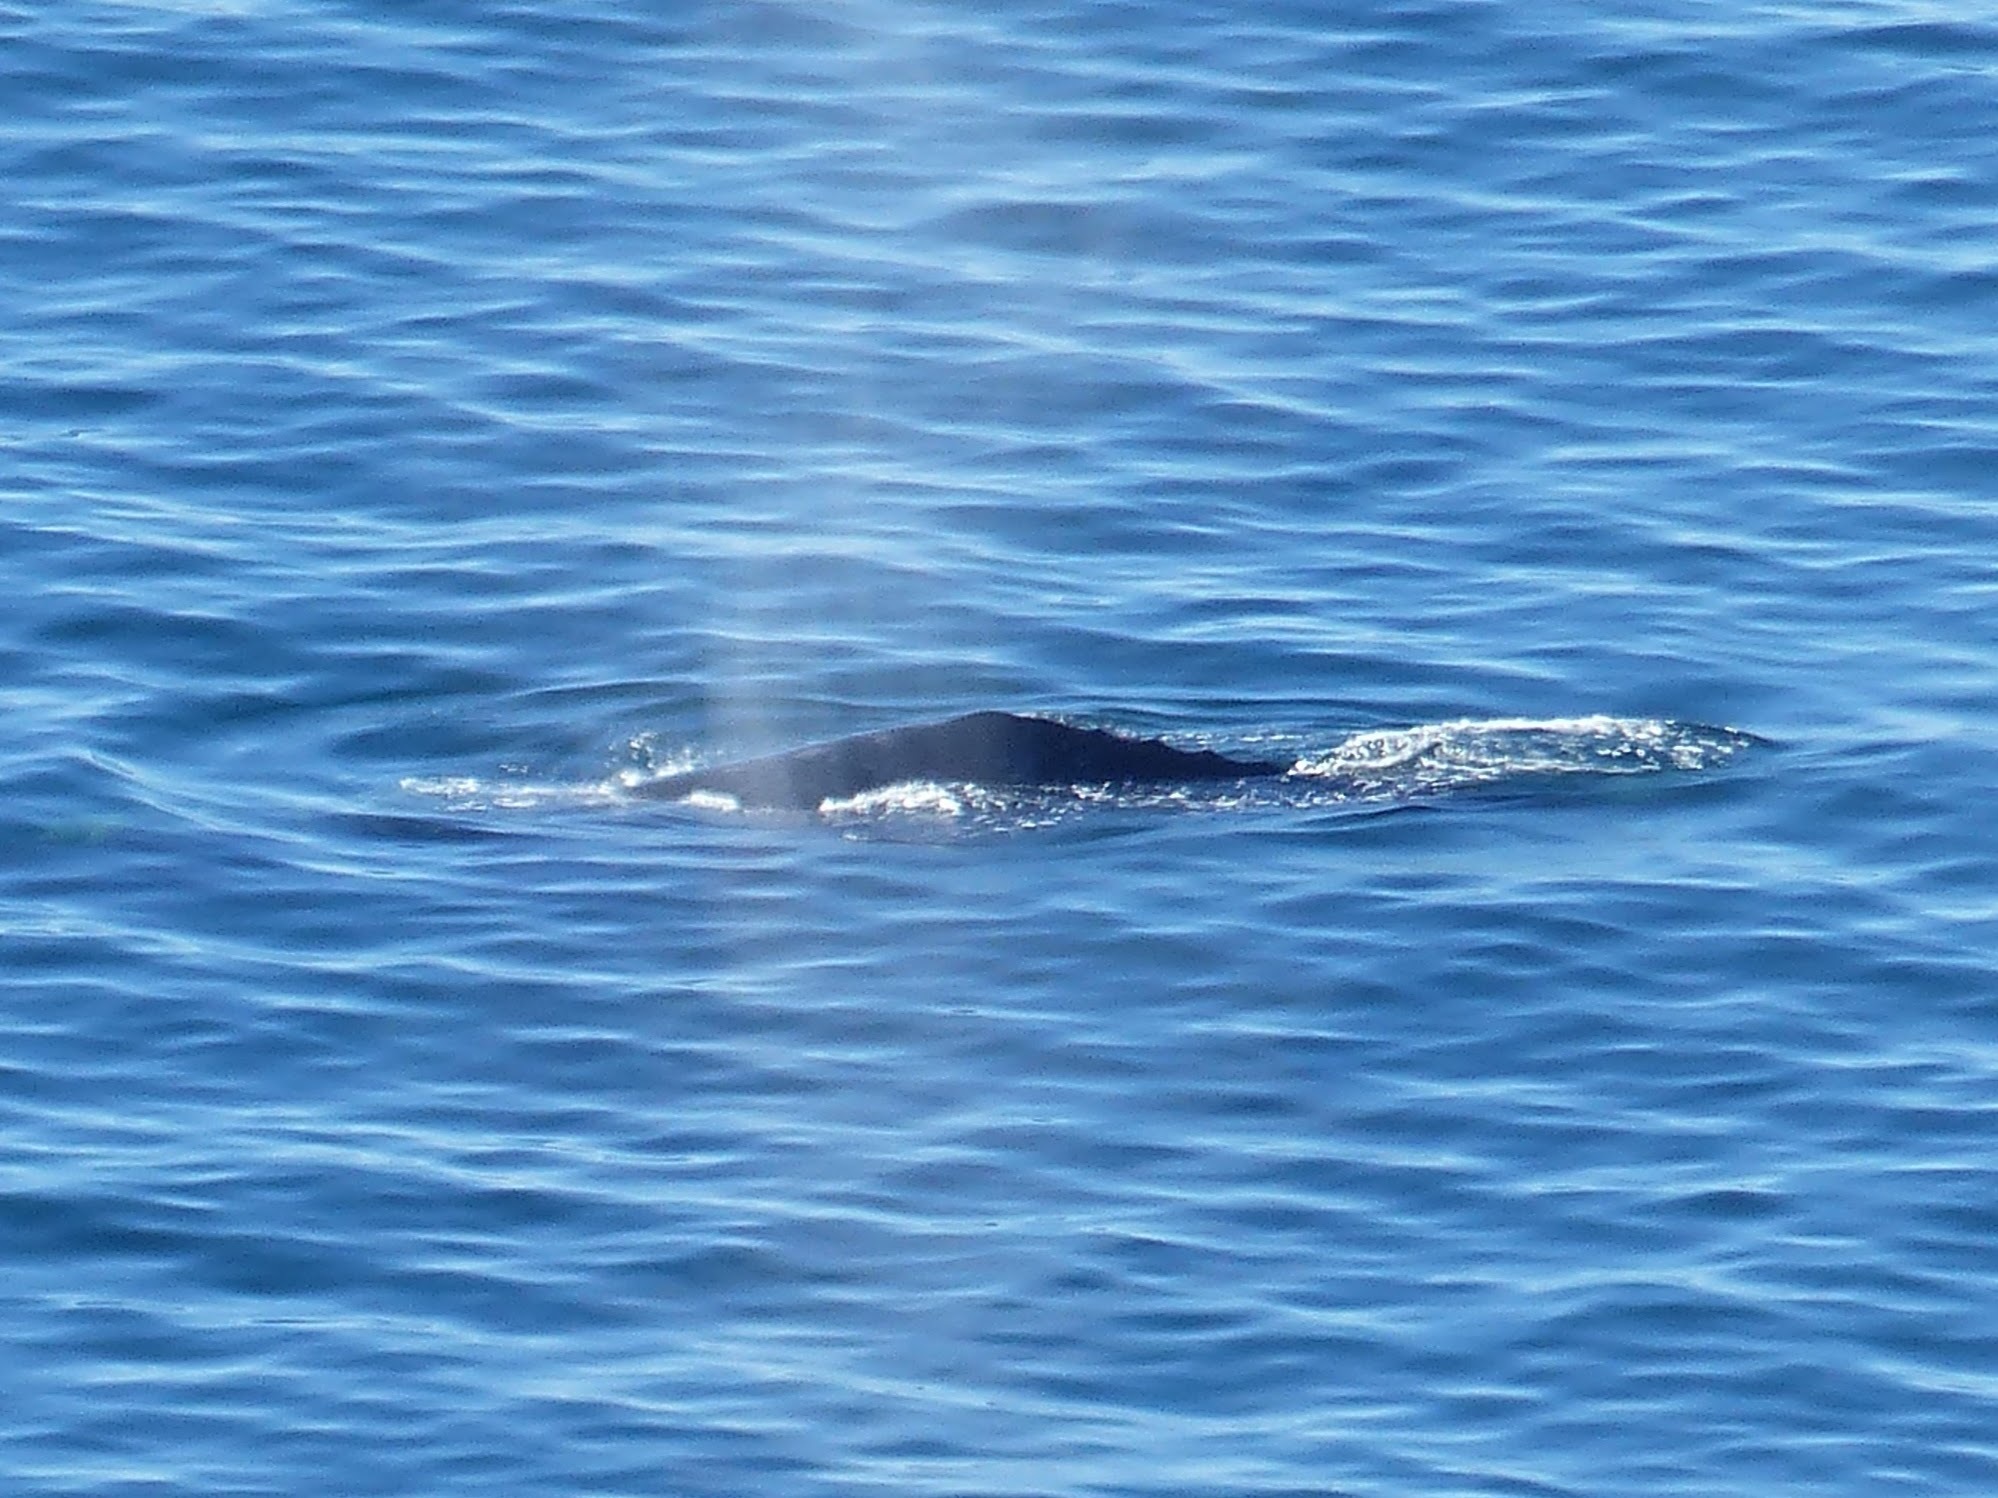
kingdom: Animalia
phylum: Chordata
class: Mammalia
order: Cetacea
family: Eschrichtiidae
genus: Eschrichtius
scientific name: Eschrichtius robustus
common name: Gray whale
